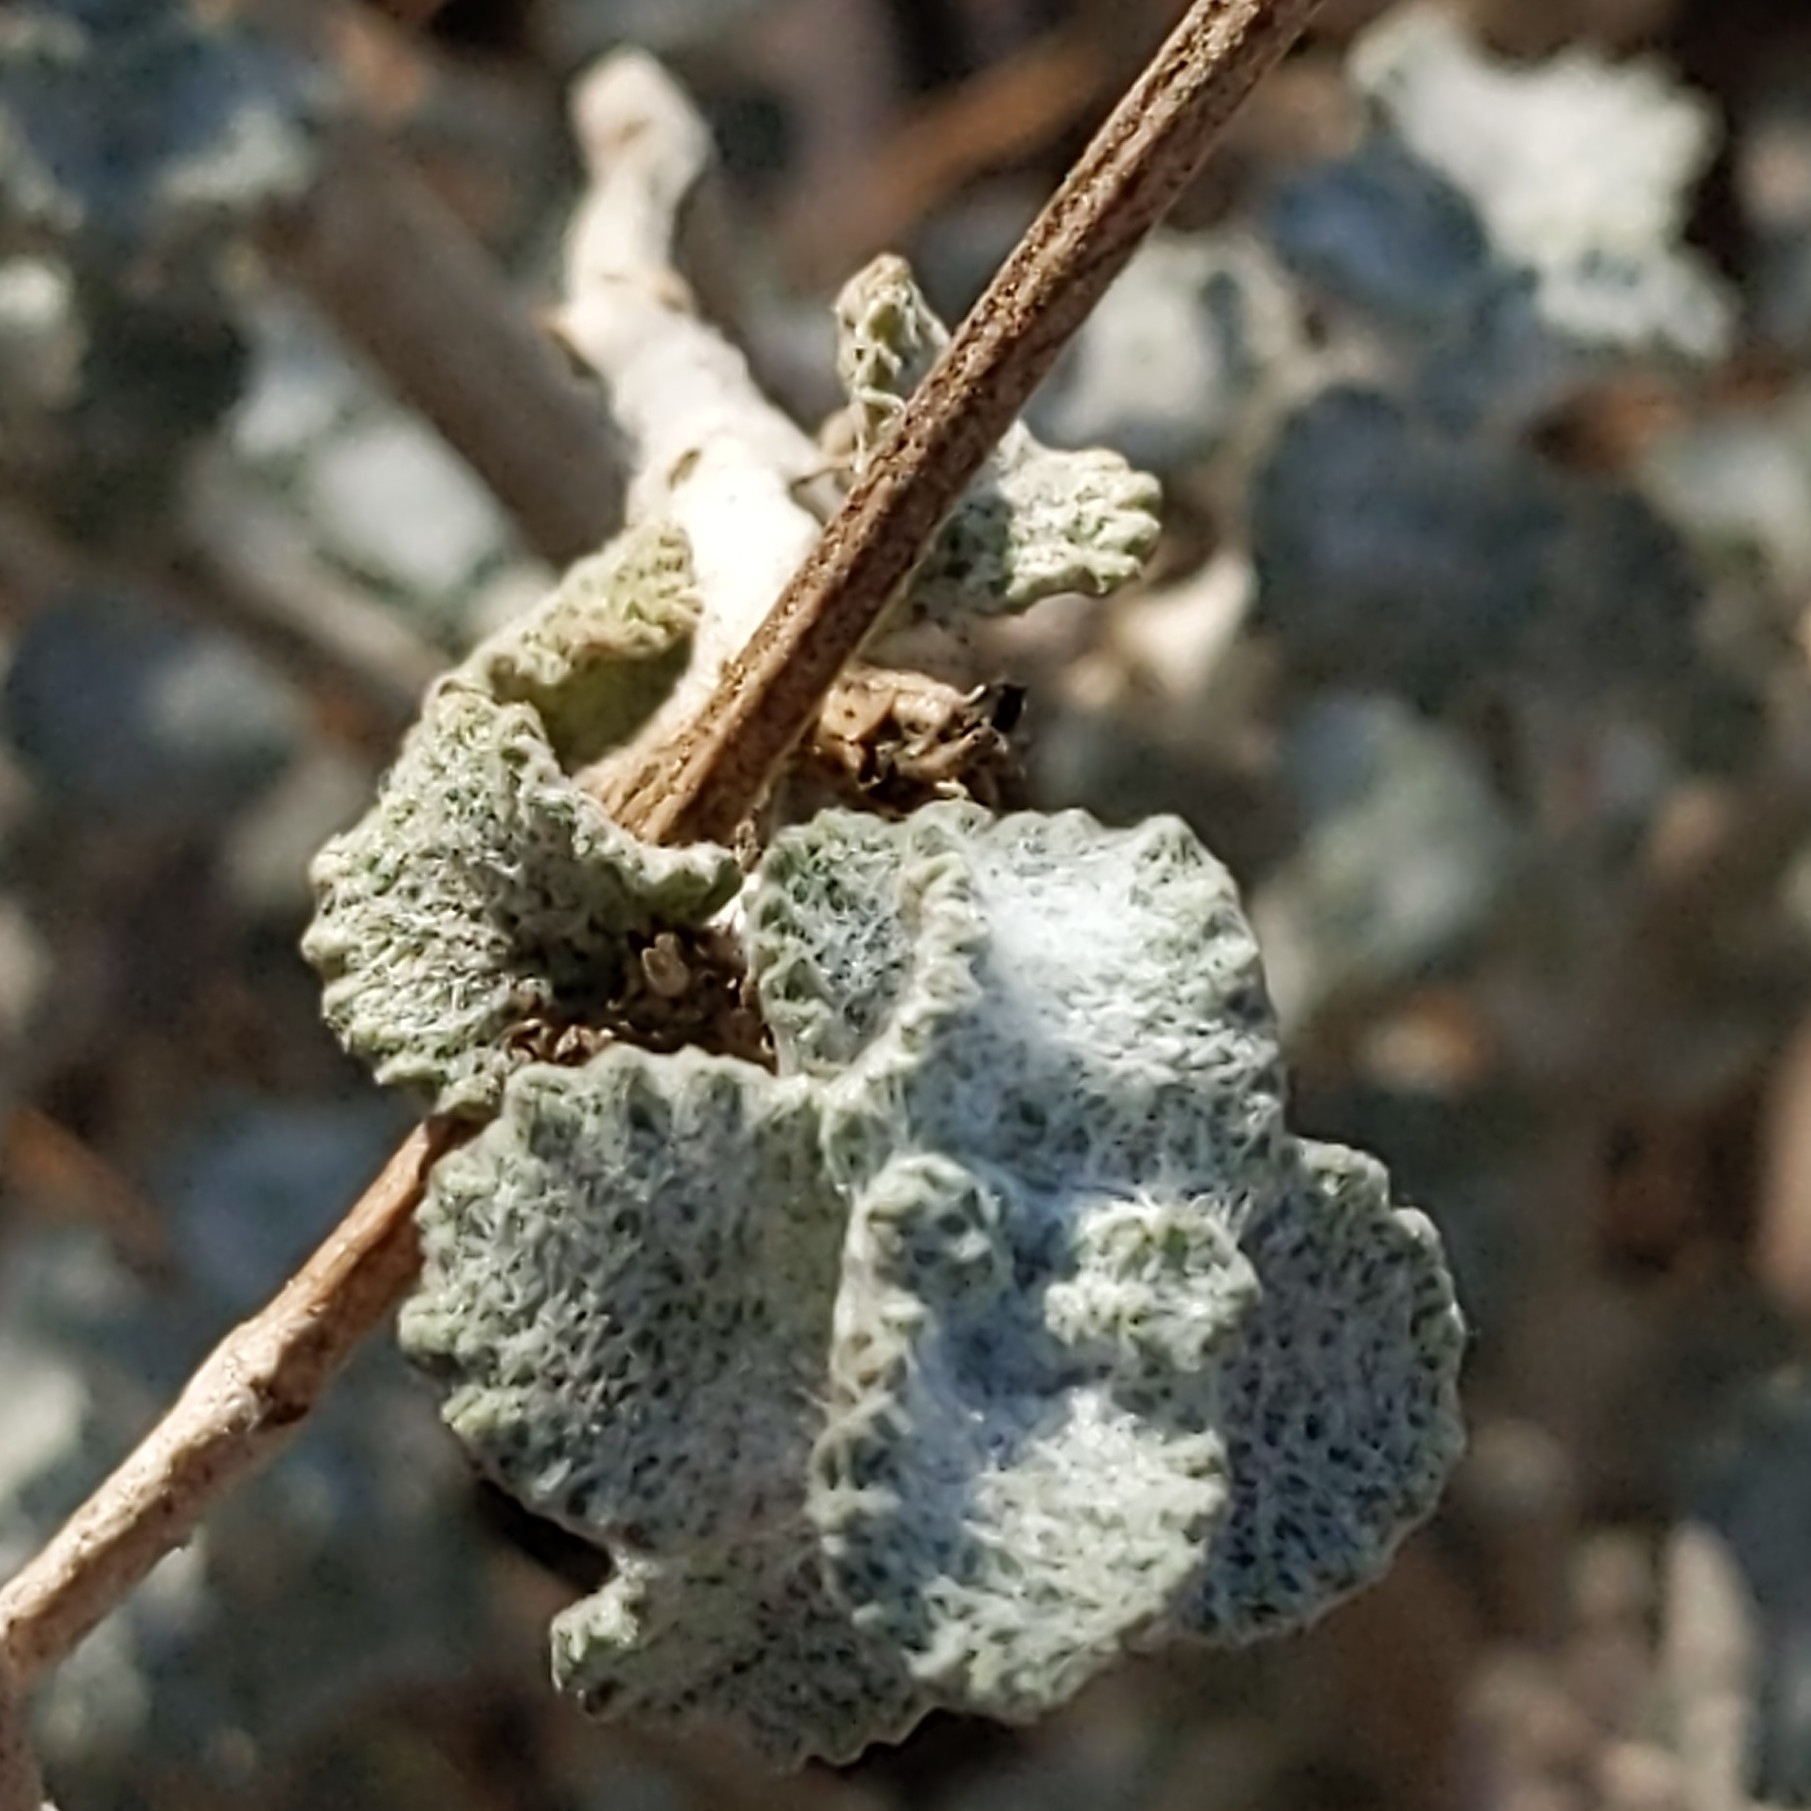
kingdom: Plantae
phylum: Tracheophyta
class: Magnoliopsida
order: Lamiales
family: Lamiaceae
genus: Marrubium
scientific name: Marrubium vulgare
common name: Horehound
